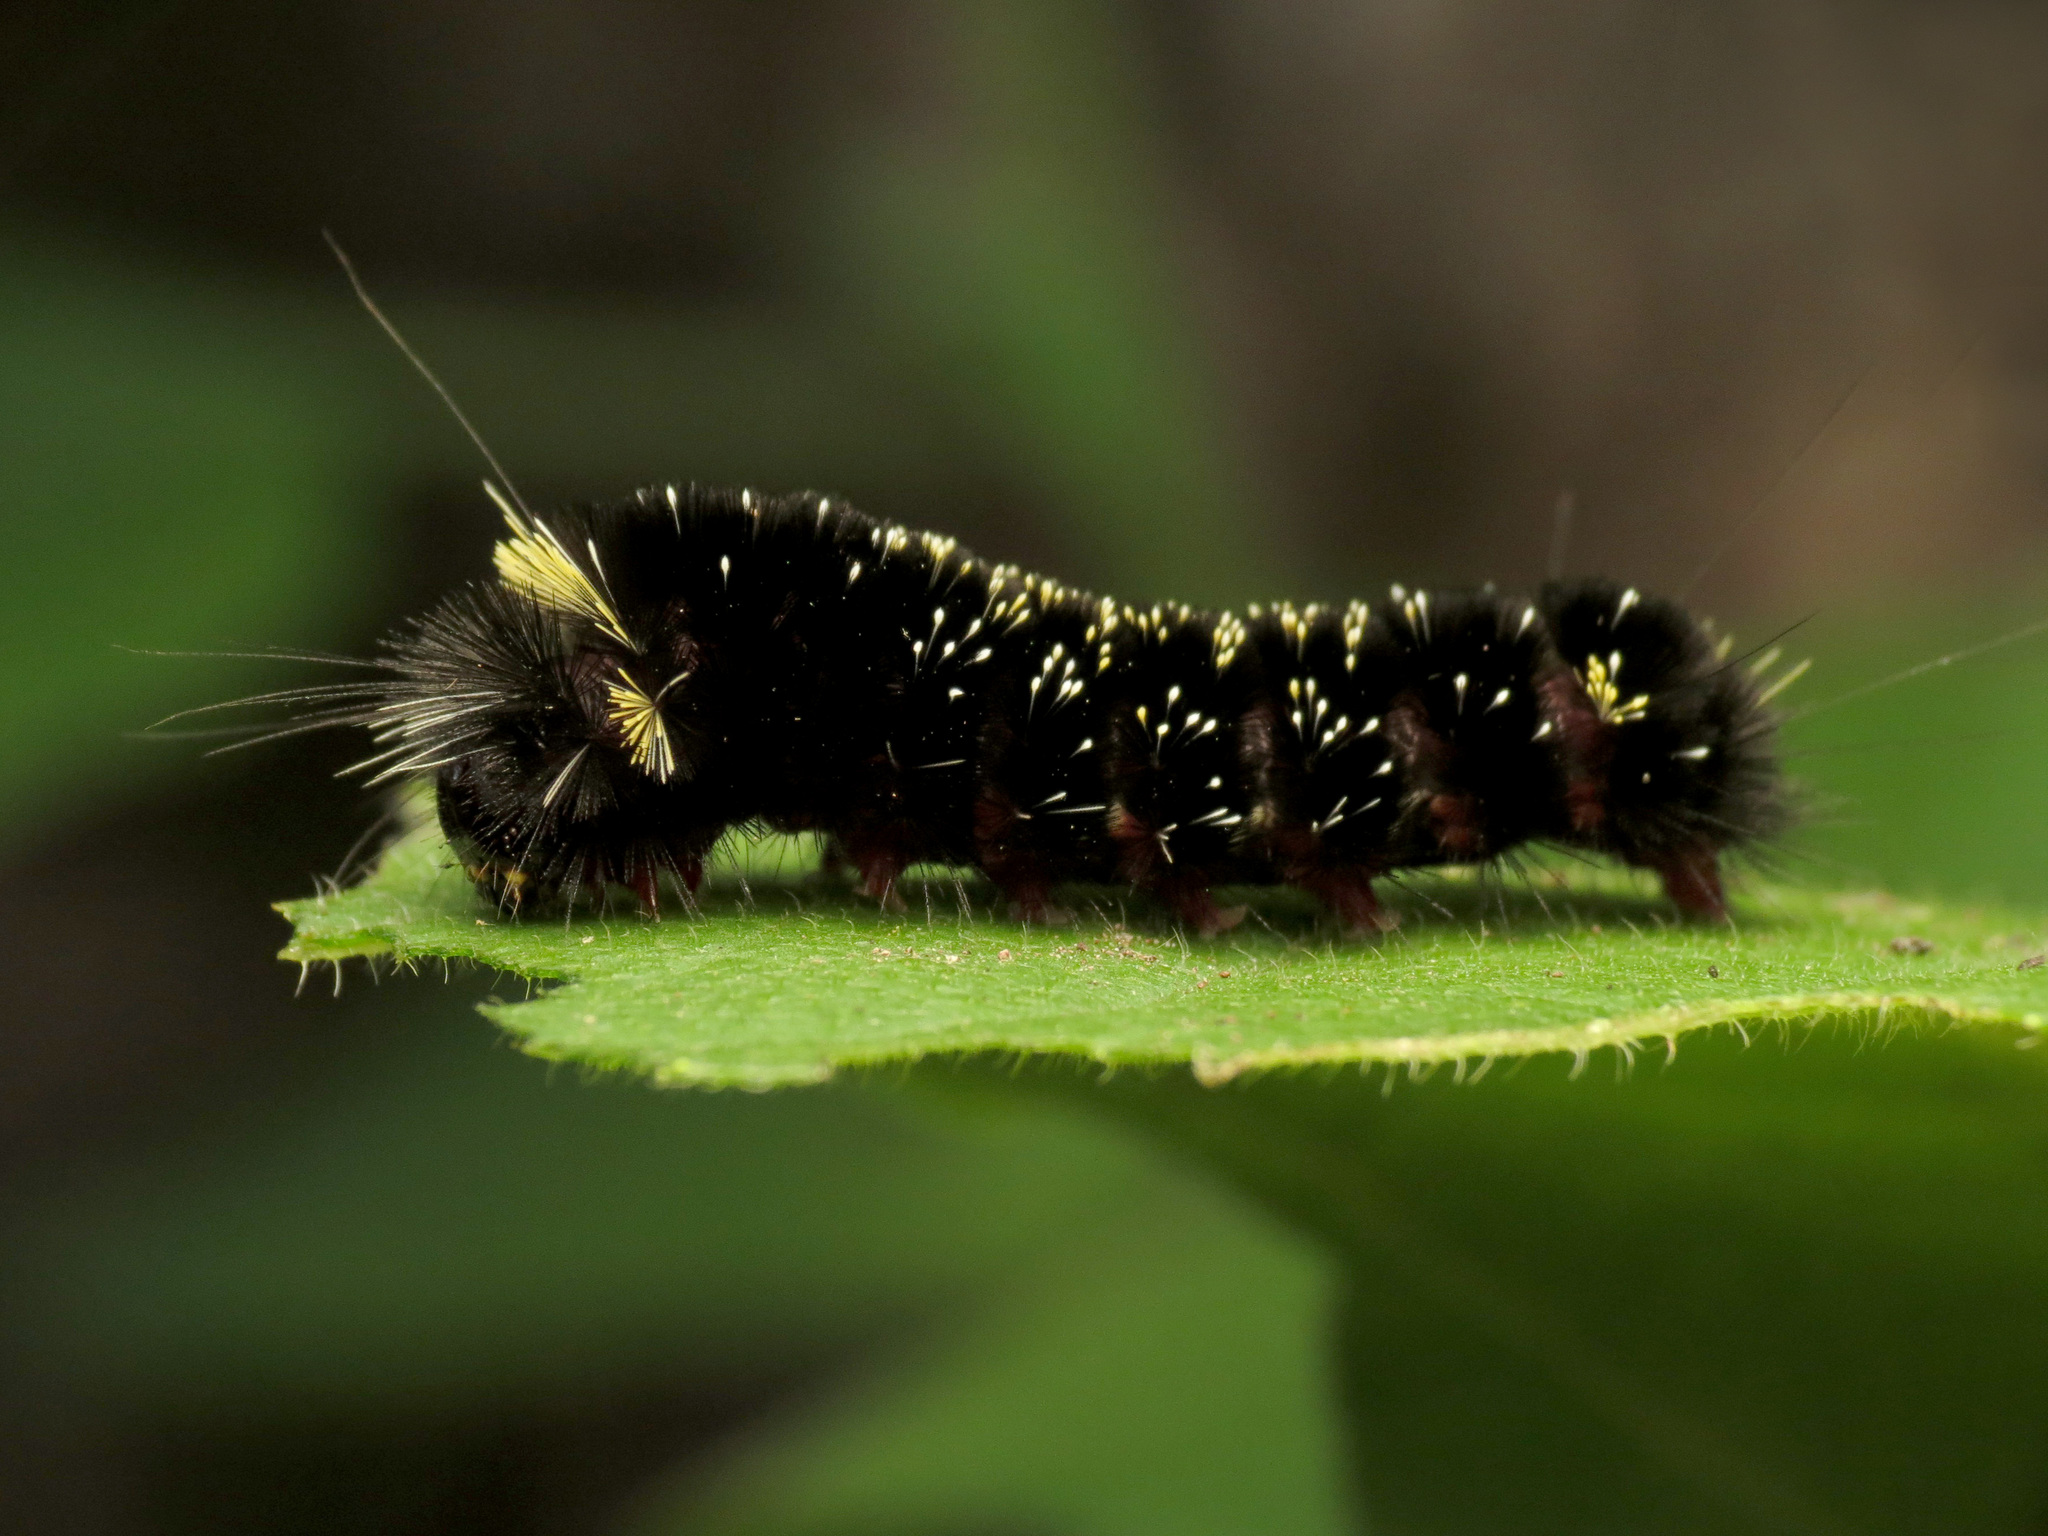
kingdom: Animalia
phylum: Arthropoda
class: Insecta
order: Lepidoptera
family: Erebidae
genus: Hypocrisias
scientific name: Hypocrisias minima
